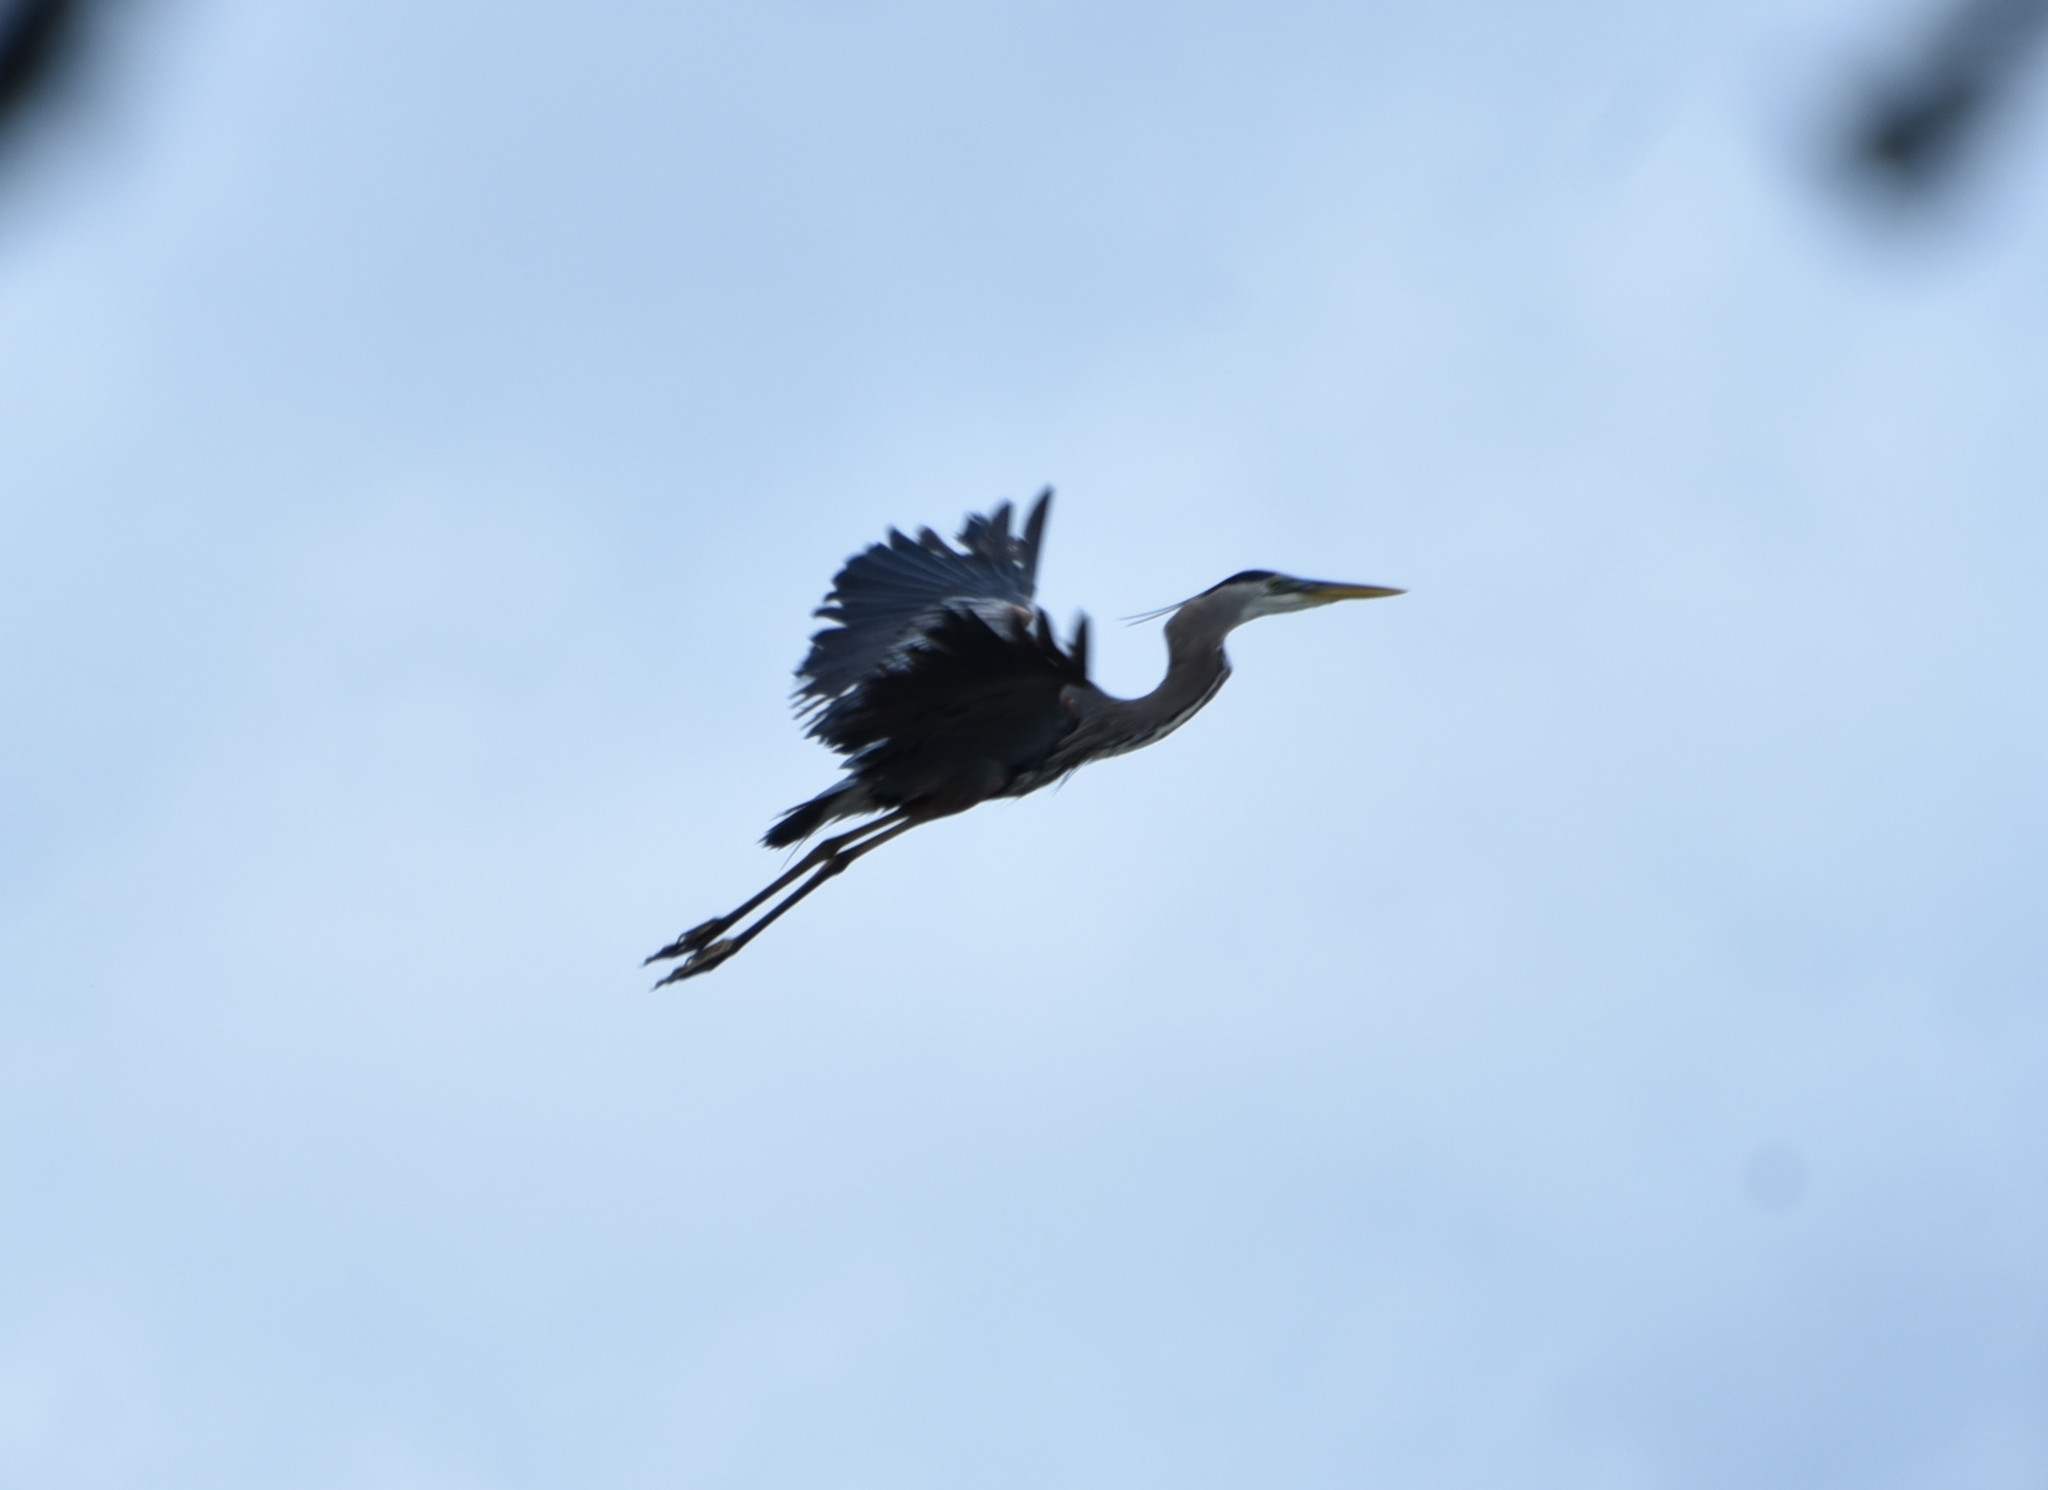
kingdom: Animalia
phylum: Chordata
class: Aves
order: Pelecaniformes
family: Ardeidae
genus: Ardea
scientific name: Ardea herodias
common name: Great blue heron
